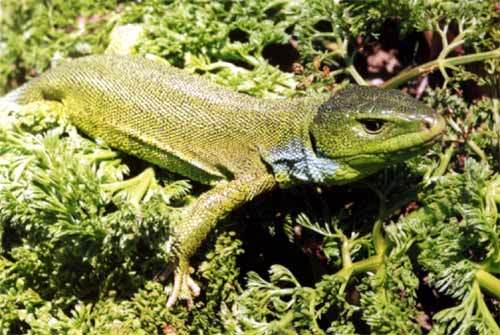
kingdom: Animalia
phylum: Chordata
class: Squamata
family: Lacertidae
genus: Lacerta
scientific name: Lacerta media
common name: Medium lizard
